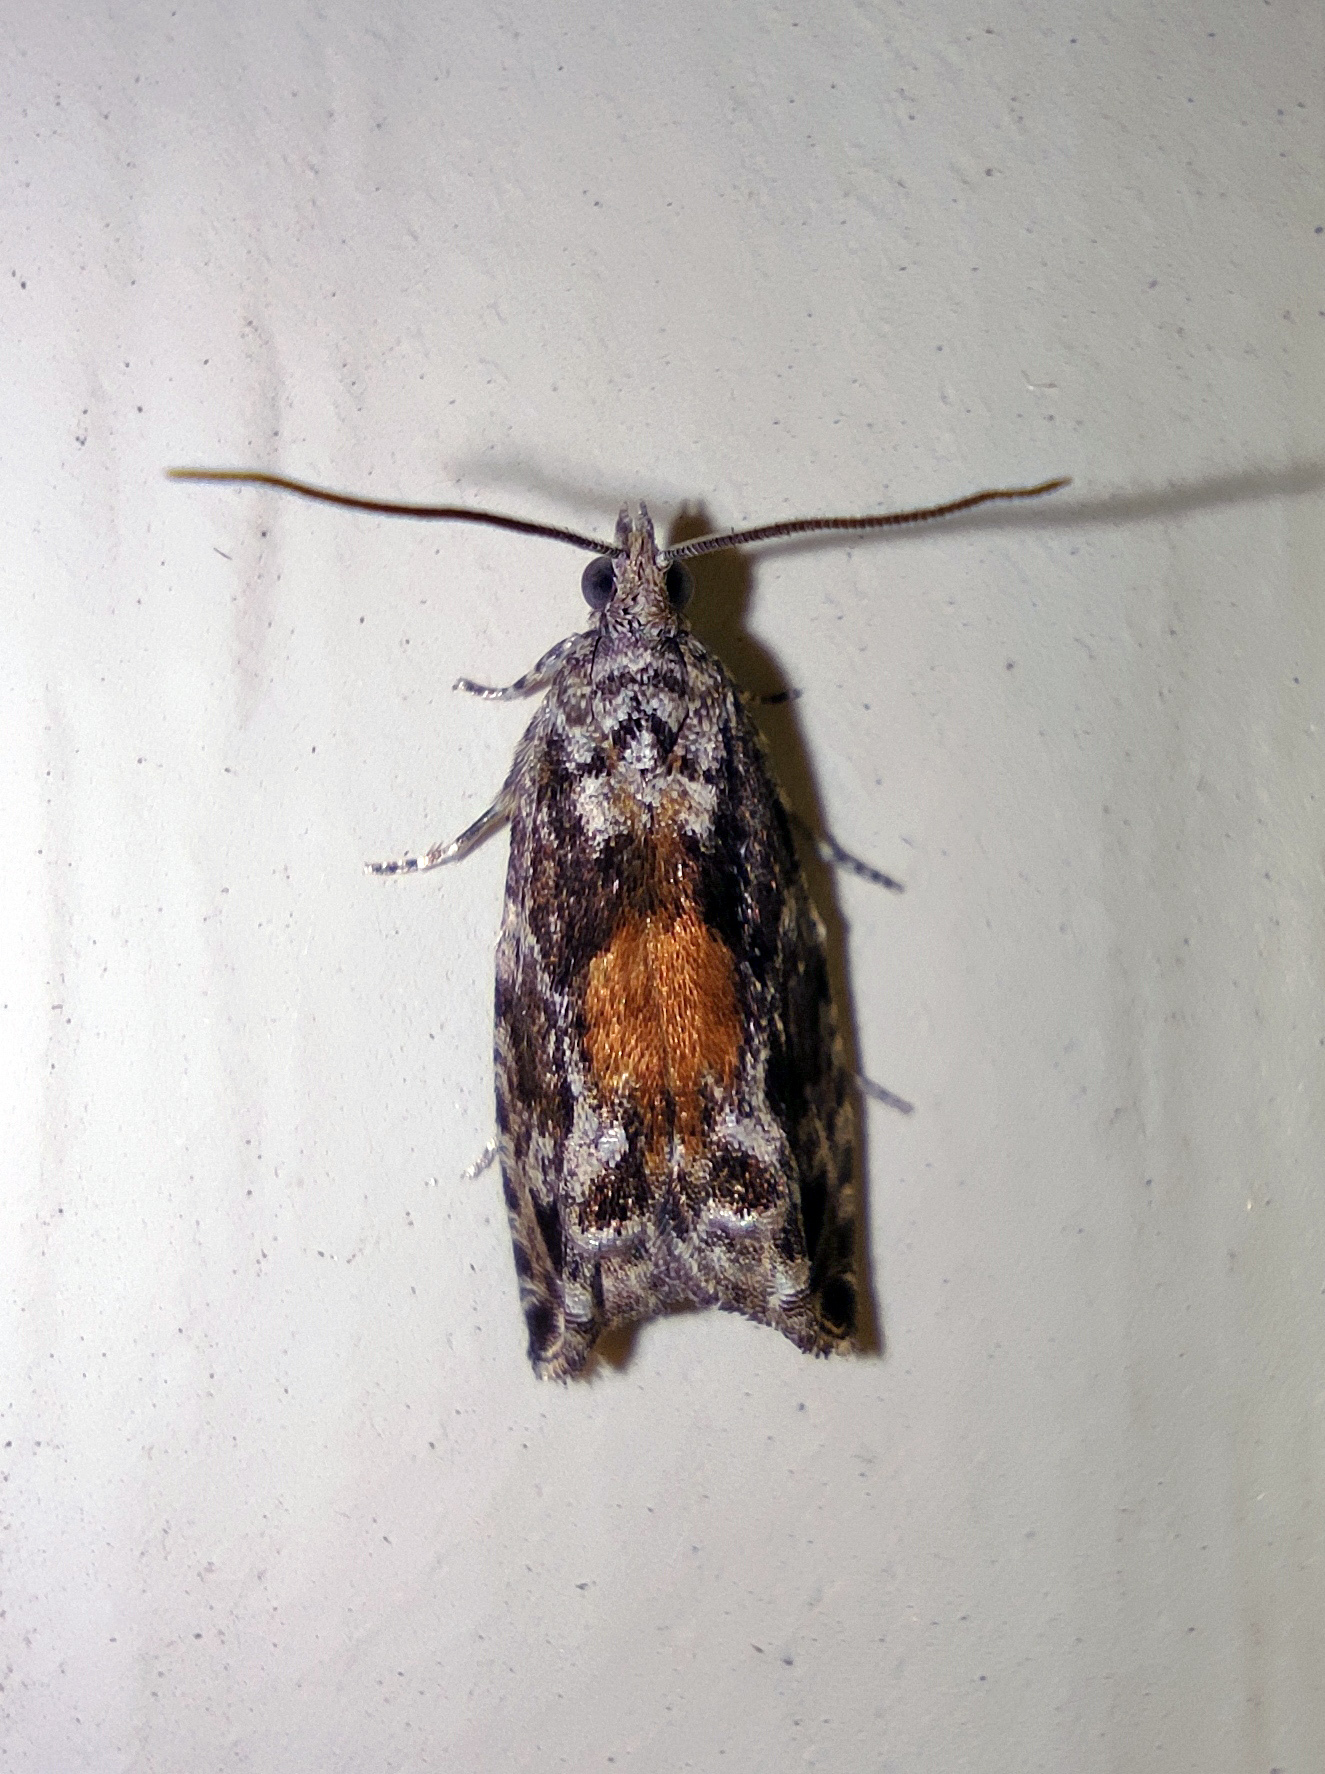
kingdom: Animalia
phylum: Arthropoda
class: Insecta
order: Lepidoptera
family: Tortricidae
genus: Epinotia
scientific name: Epinotia nisella
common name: Grey poplar bell
